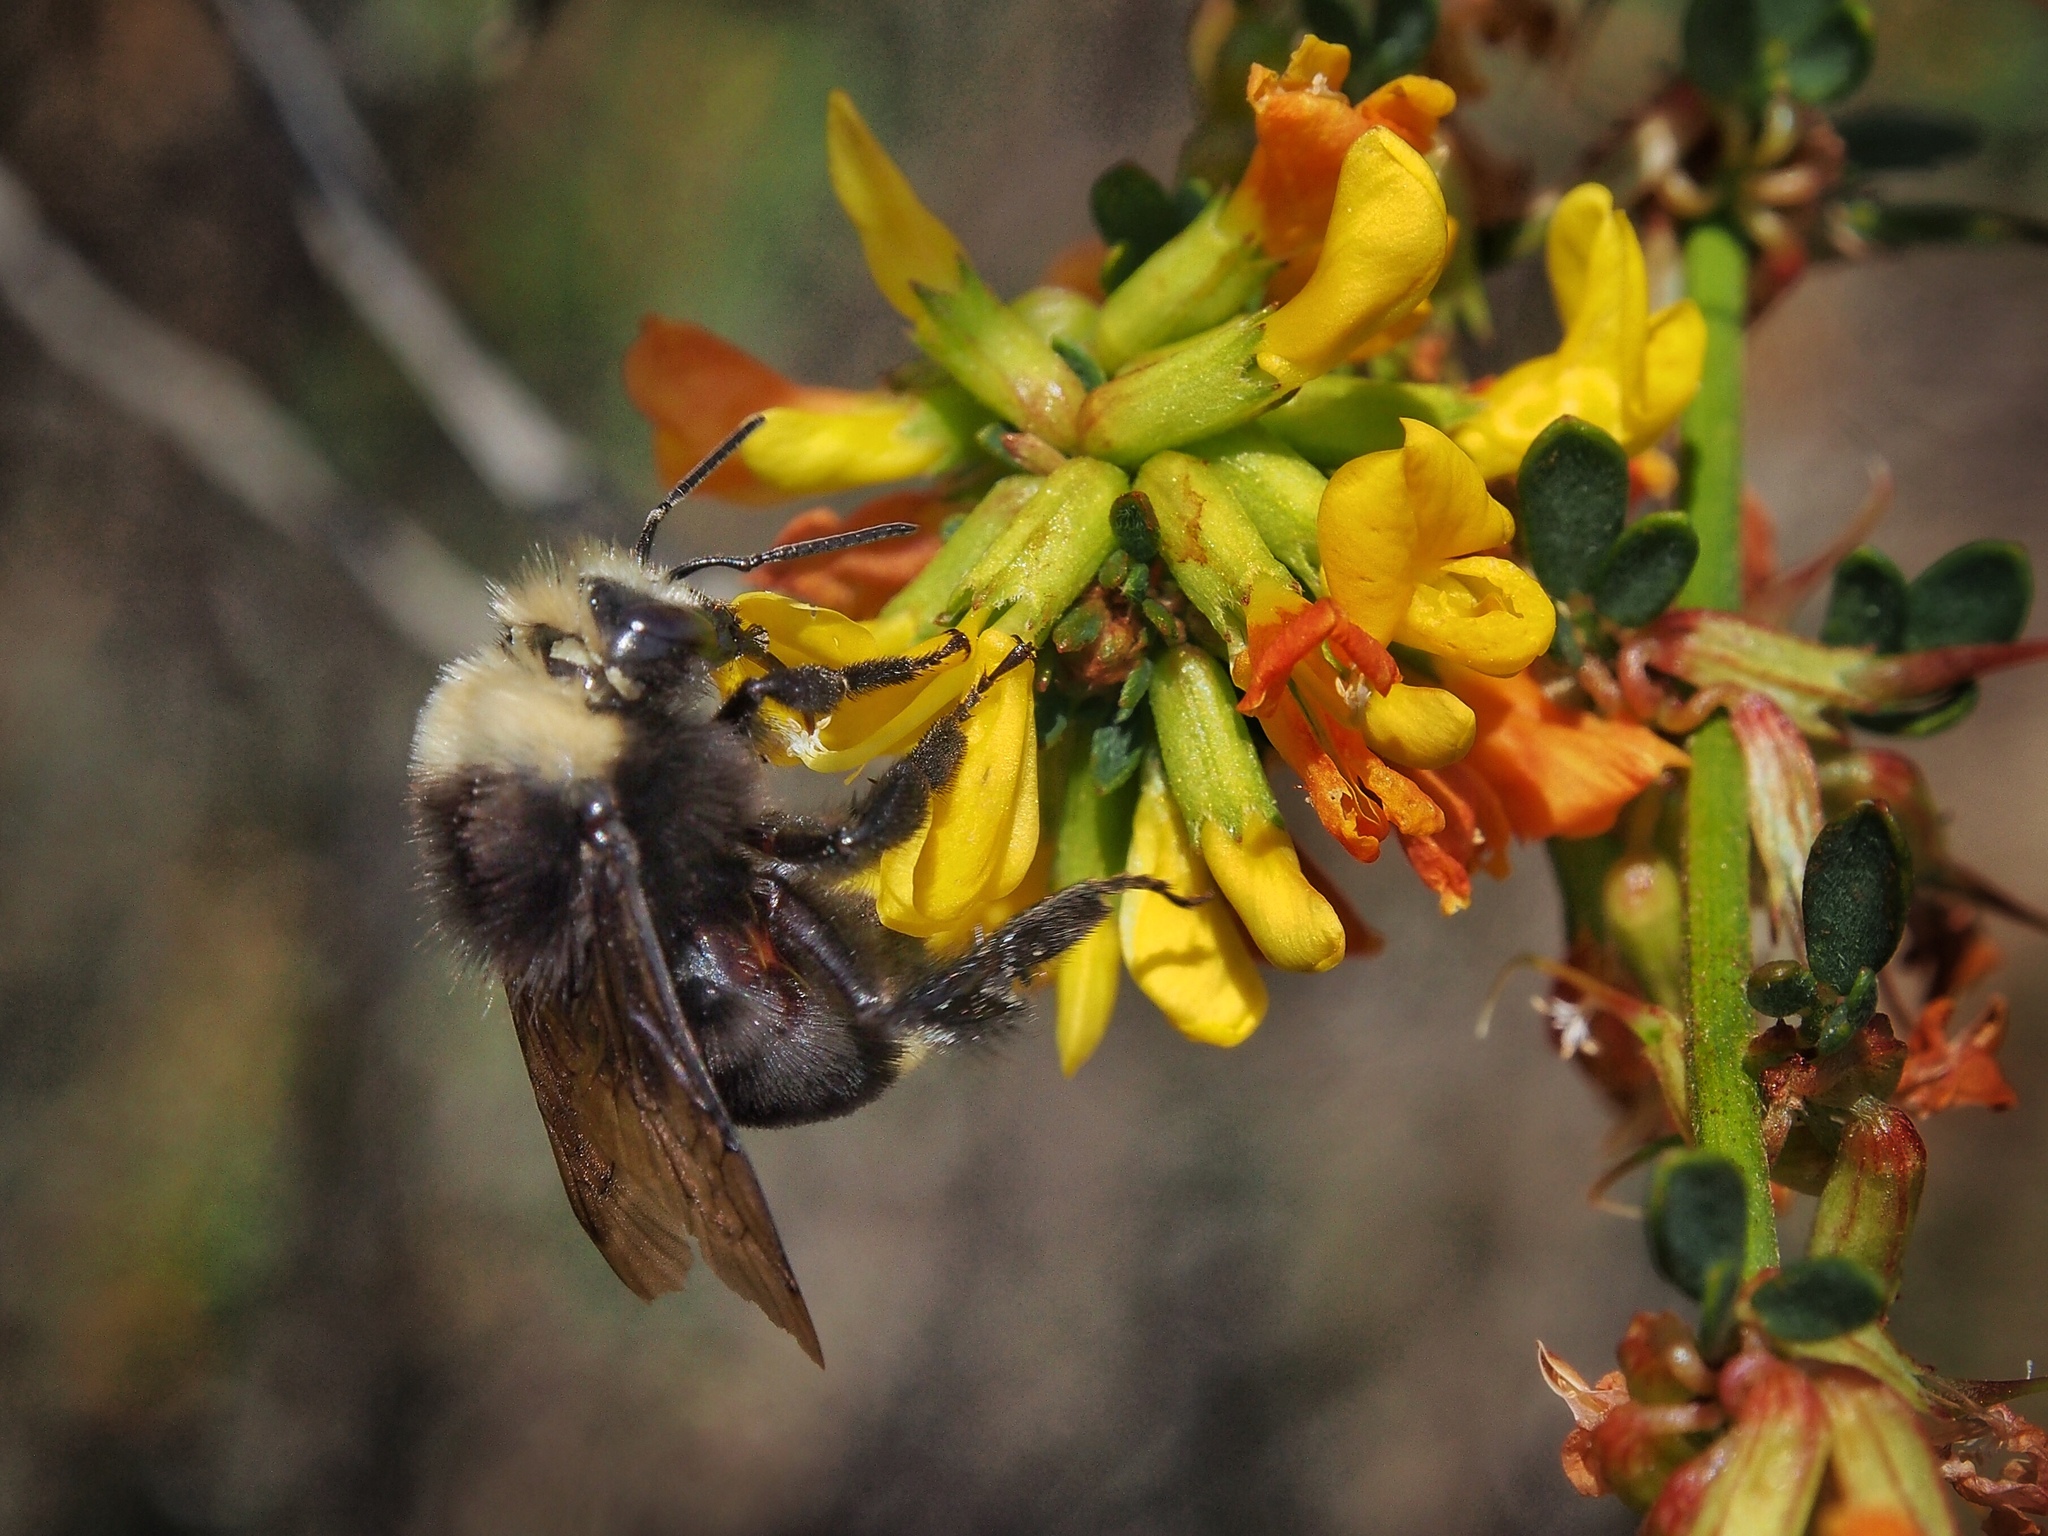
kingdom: Plantae
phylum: Tracheophyta
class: Magnoliopsida
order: Fabales
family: Fabaceae
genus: Acmispon
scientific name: Acmispon glaber
